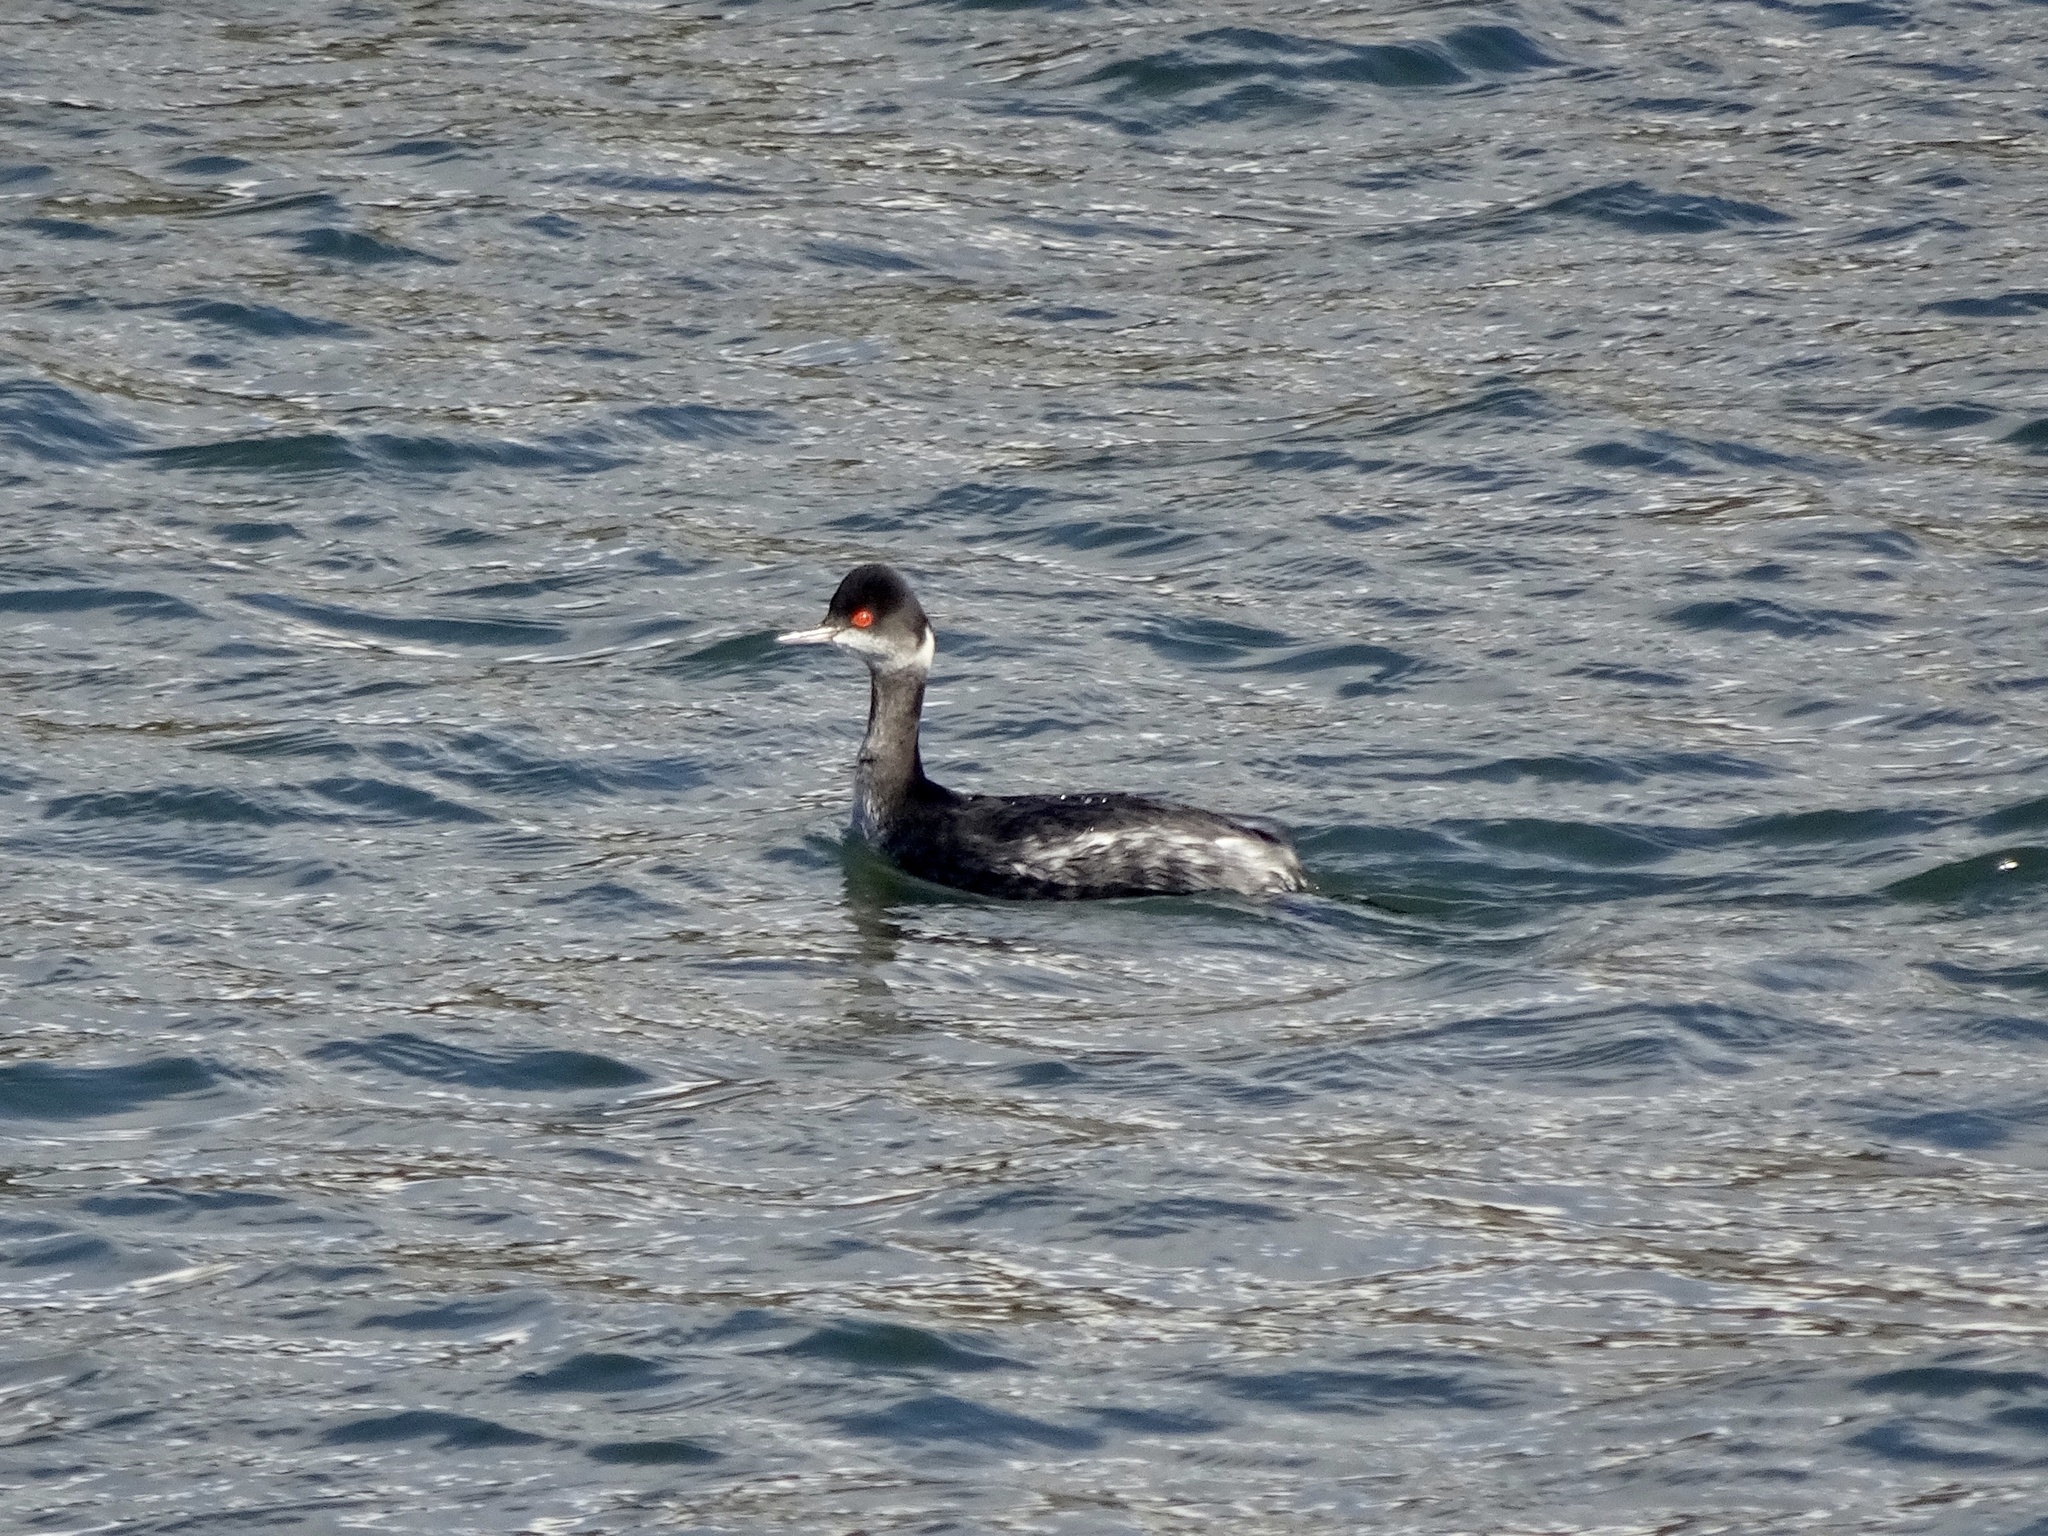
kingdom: Animalia
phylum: Chordata
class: Aves
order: Podicipediformes
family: Podicipedidae
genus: Podiceps
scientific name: Podiceps nigricollis
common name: Black-necked grebe
